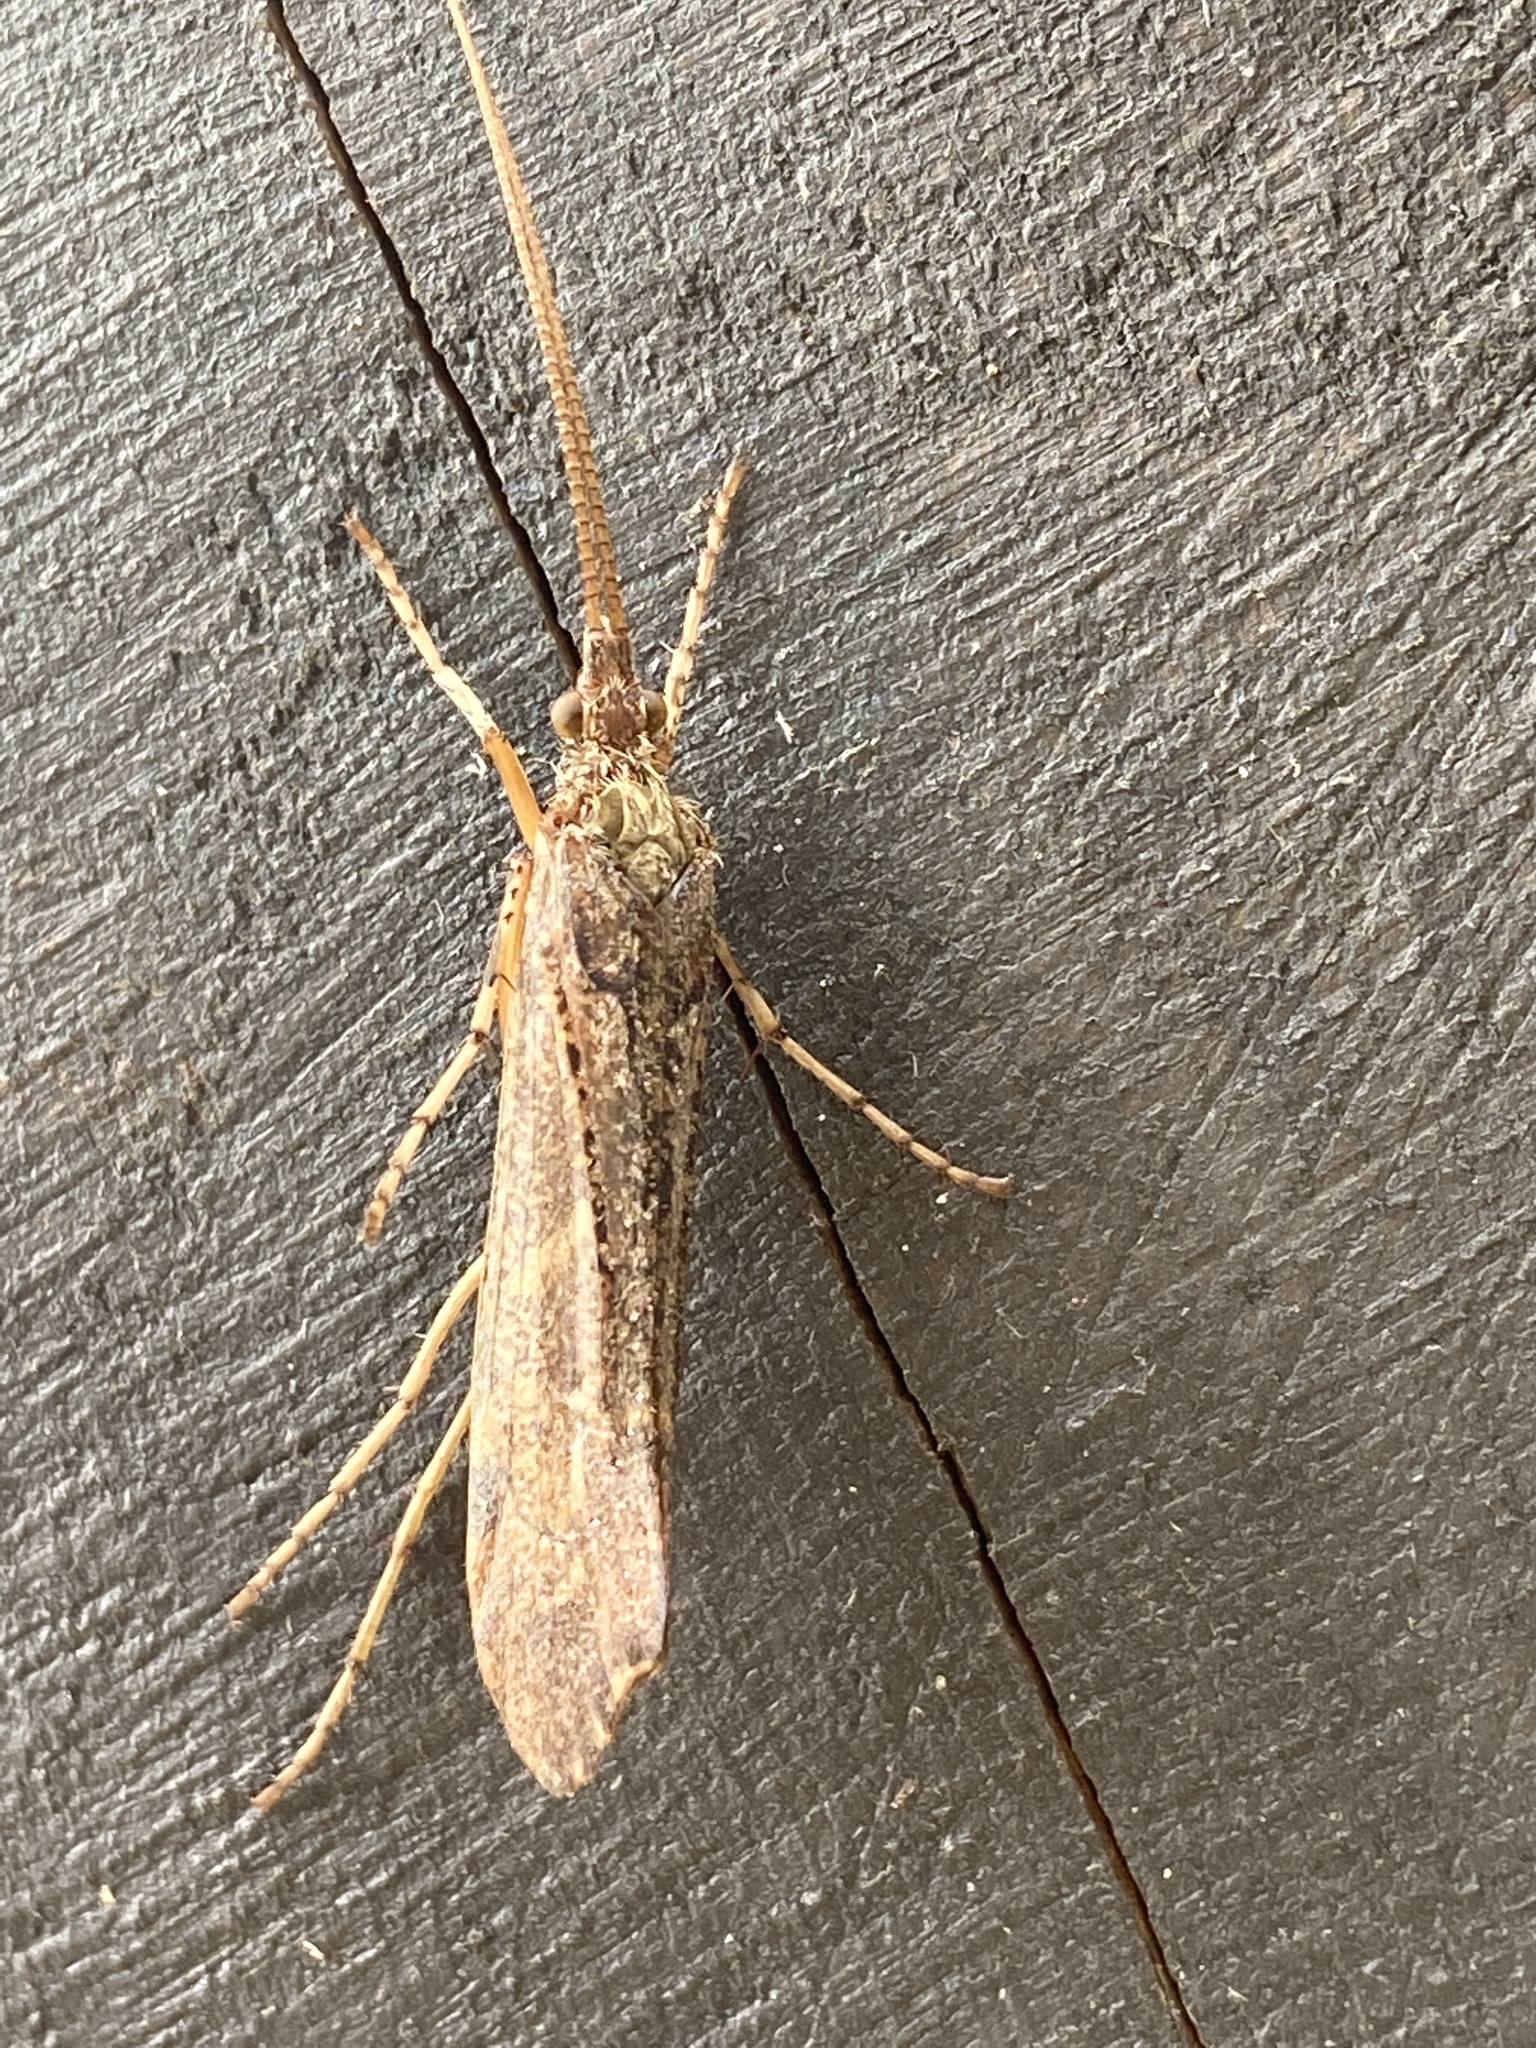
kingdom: Animalia
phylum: Arthropoda
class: Insecta
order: Trichoptera
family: Limnephilidae
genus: Glyphotaelius
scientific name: Glyphotaelius pellucidus
